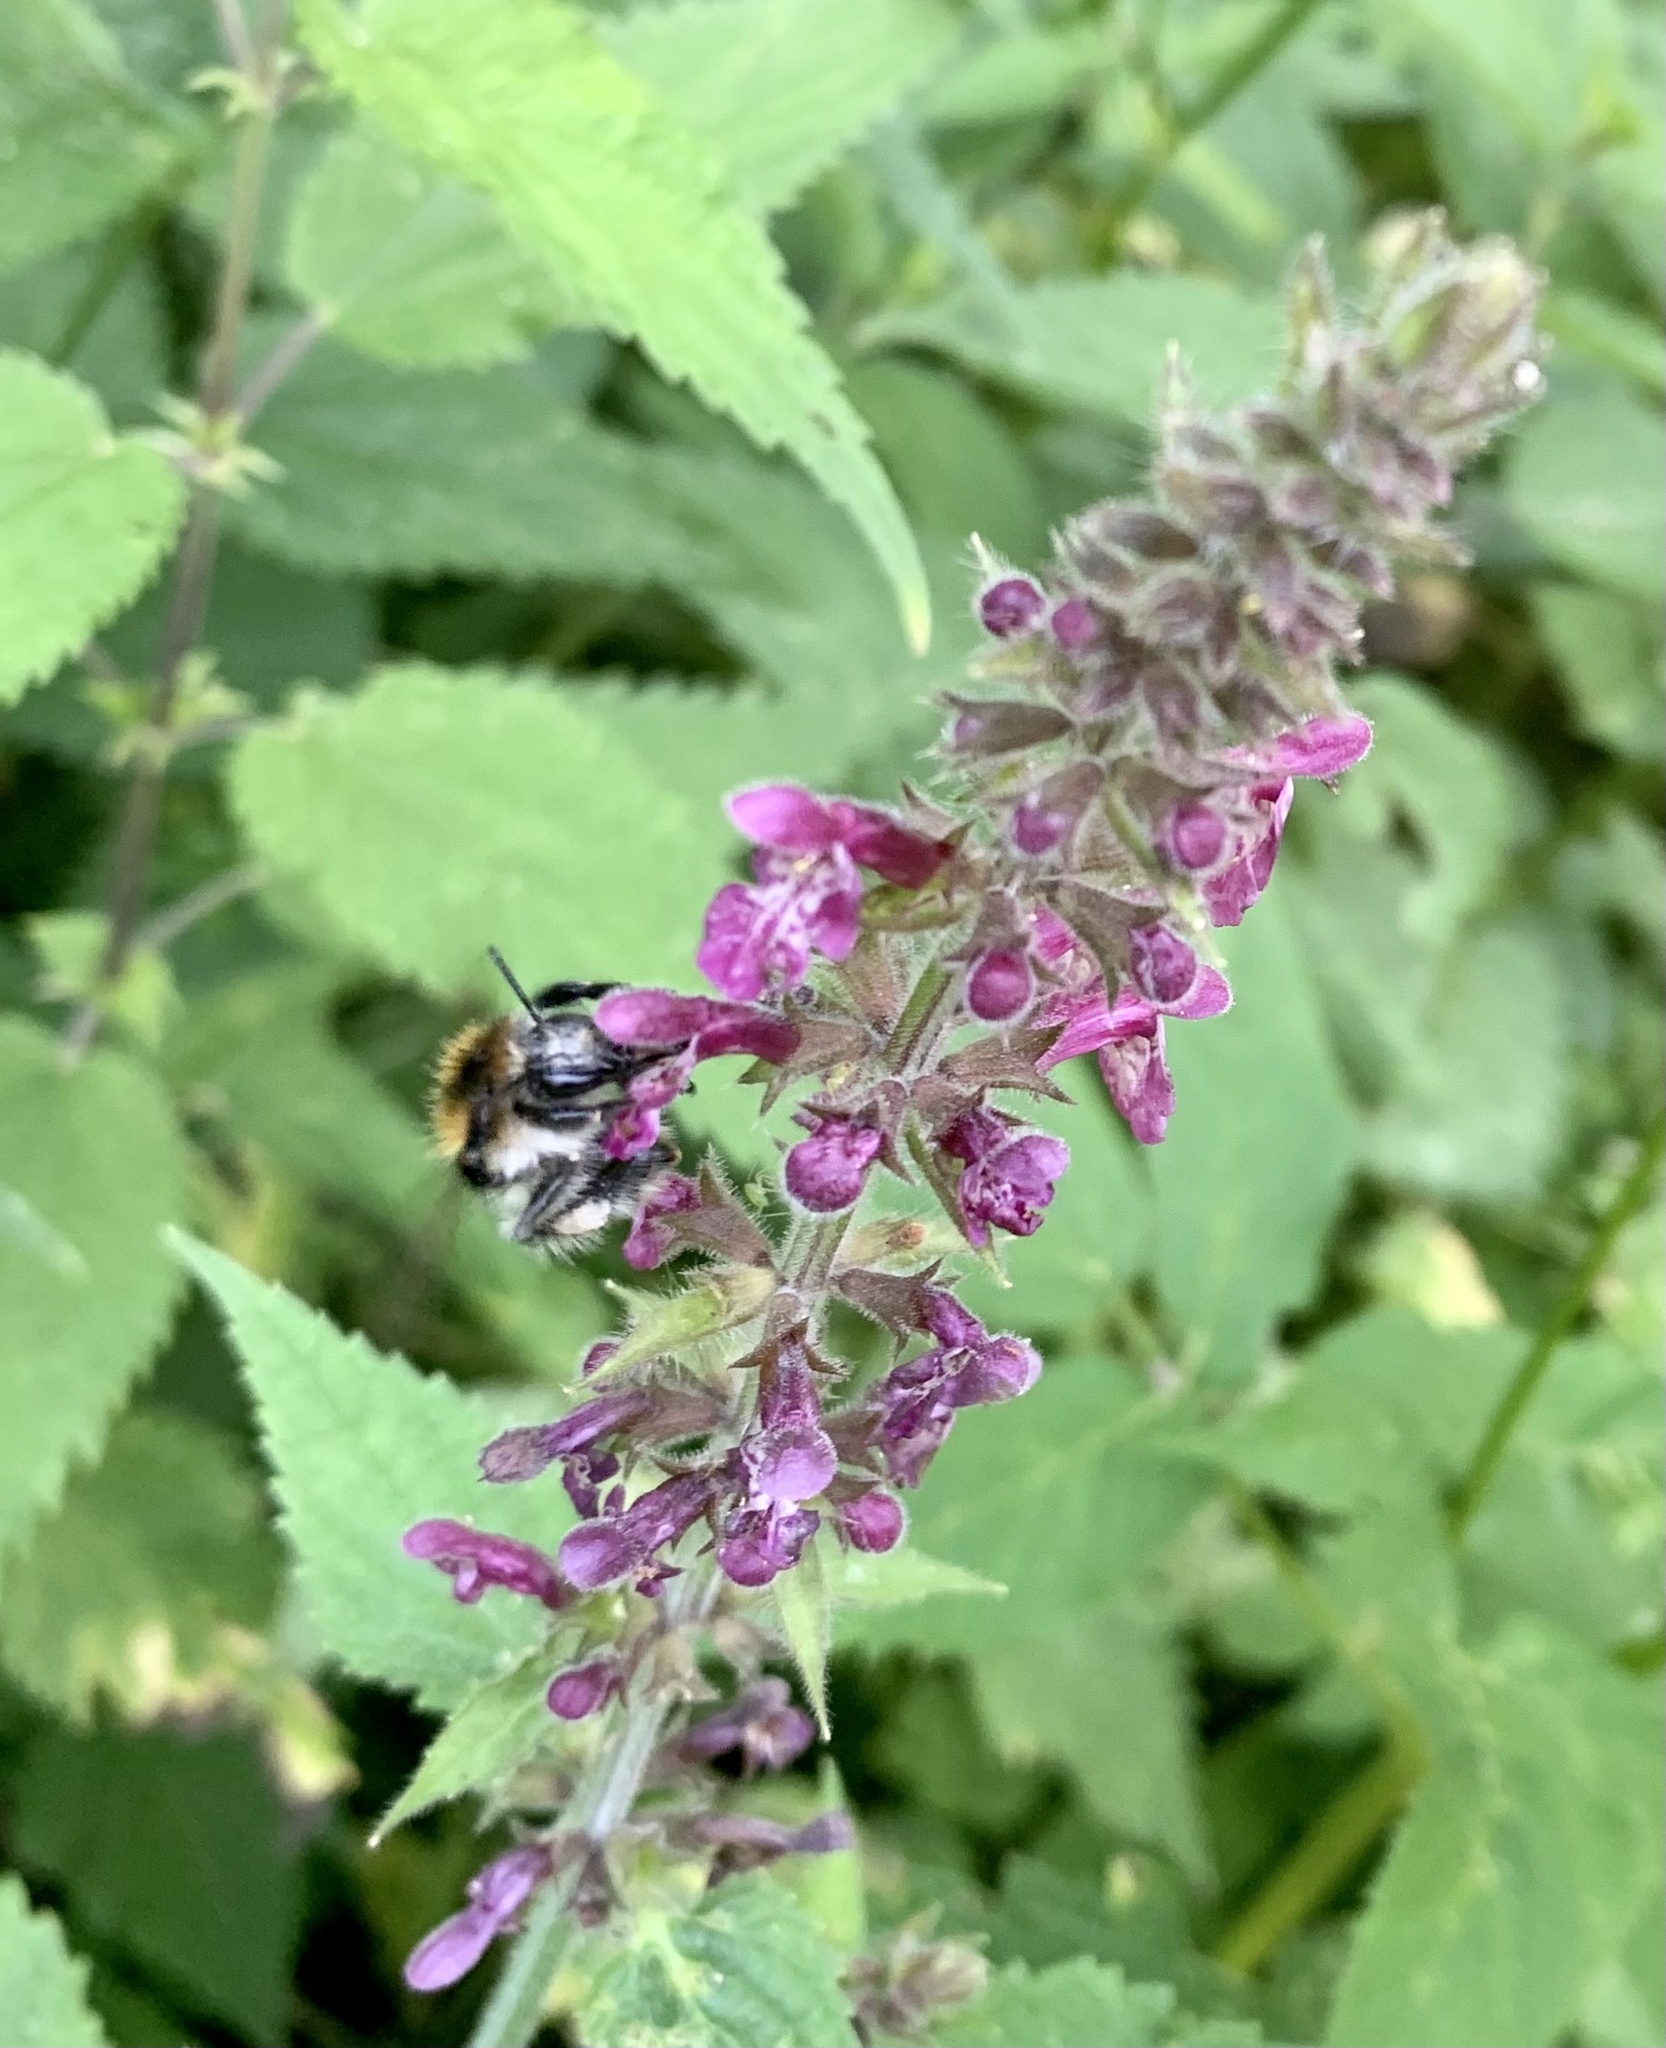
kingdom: Animalia
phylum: Arthropoda
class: Insecta
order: Hymenoptera
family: Apidae
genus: Bombus
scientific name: Bombus pascuorum
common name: Common carder bee
